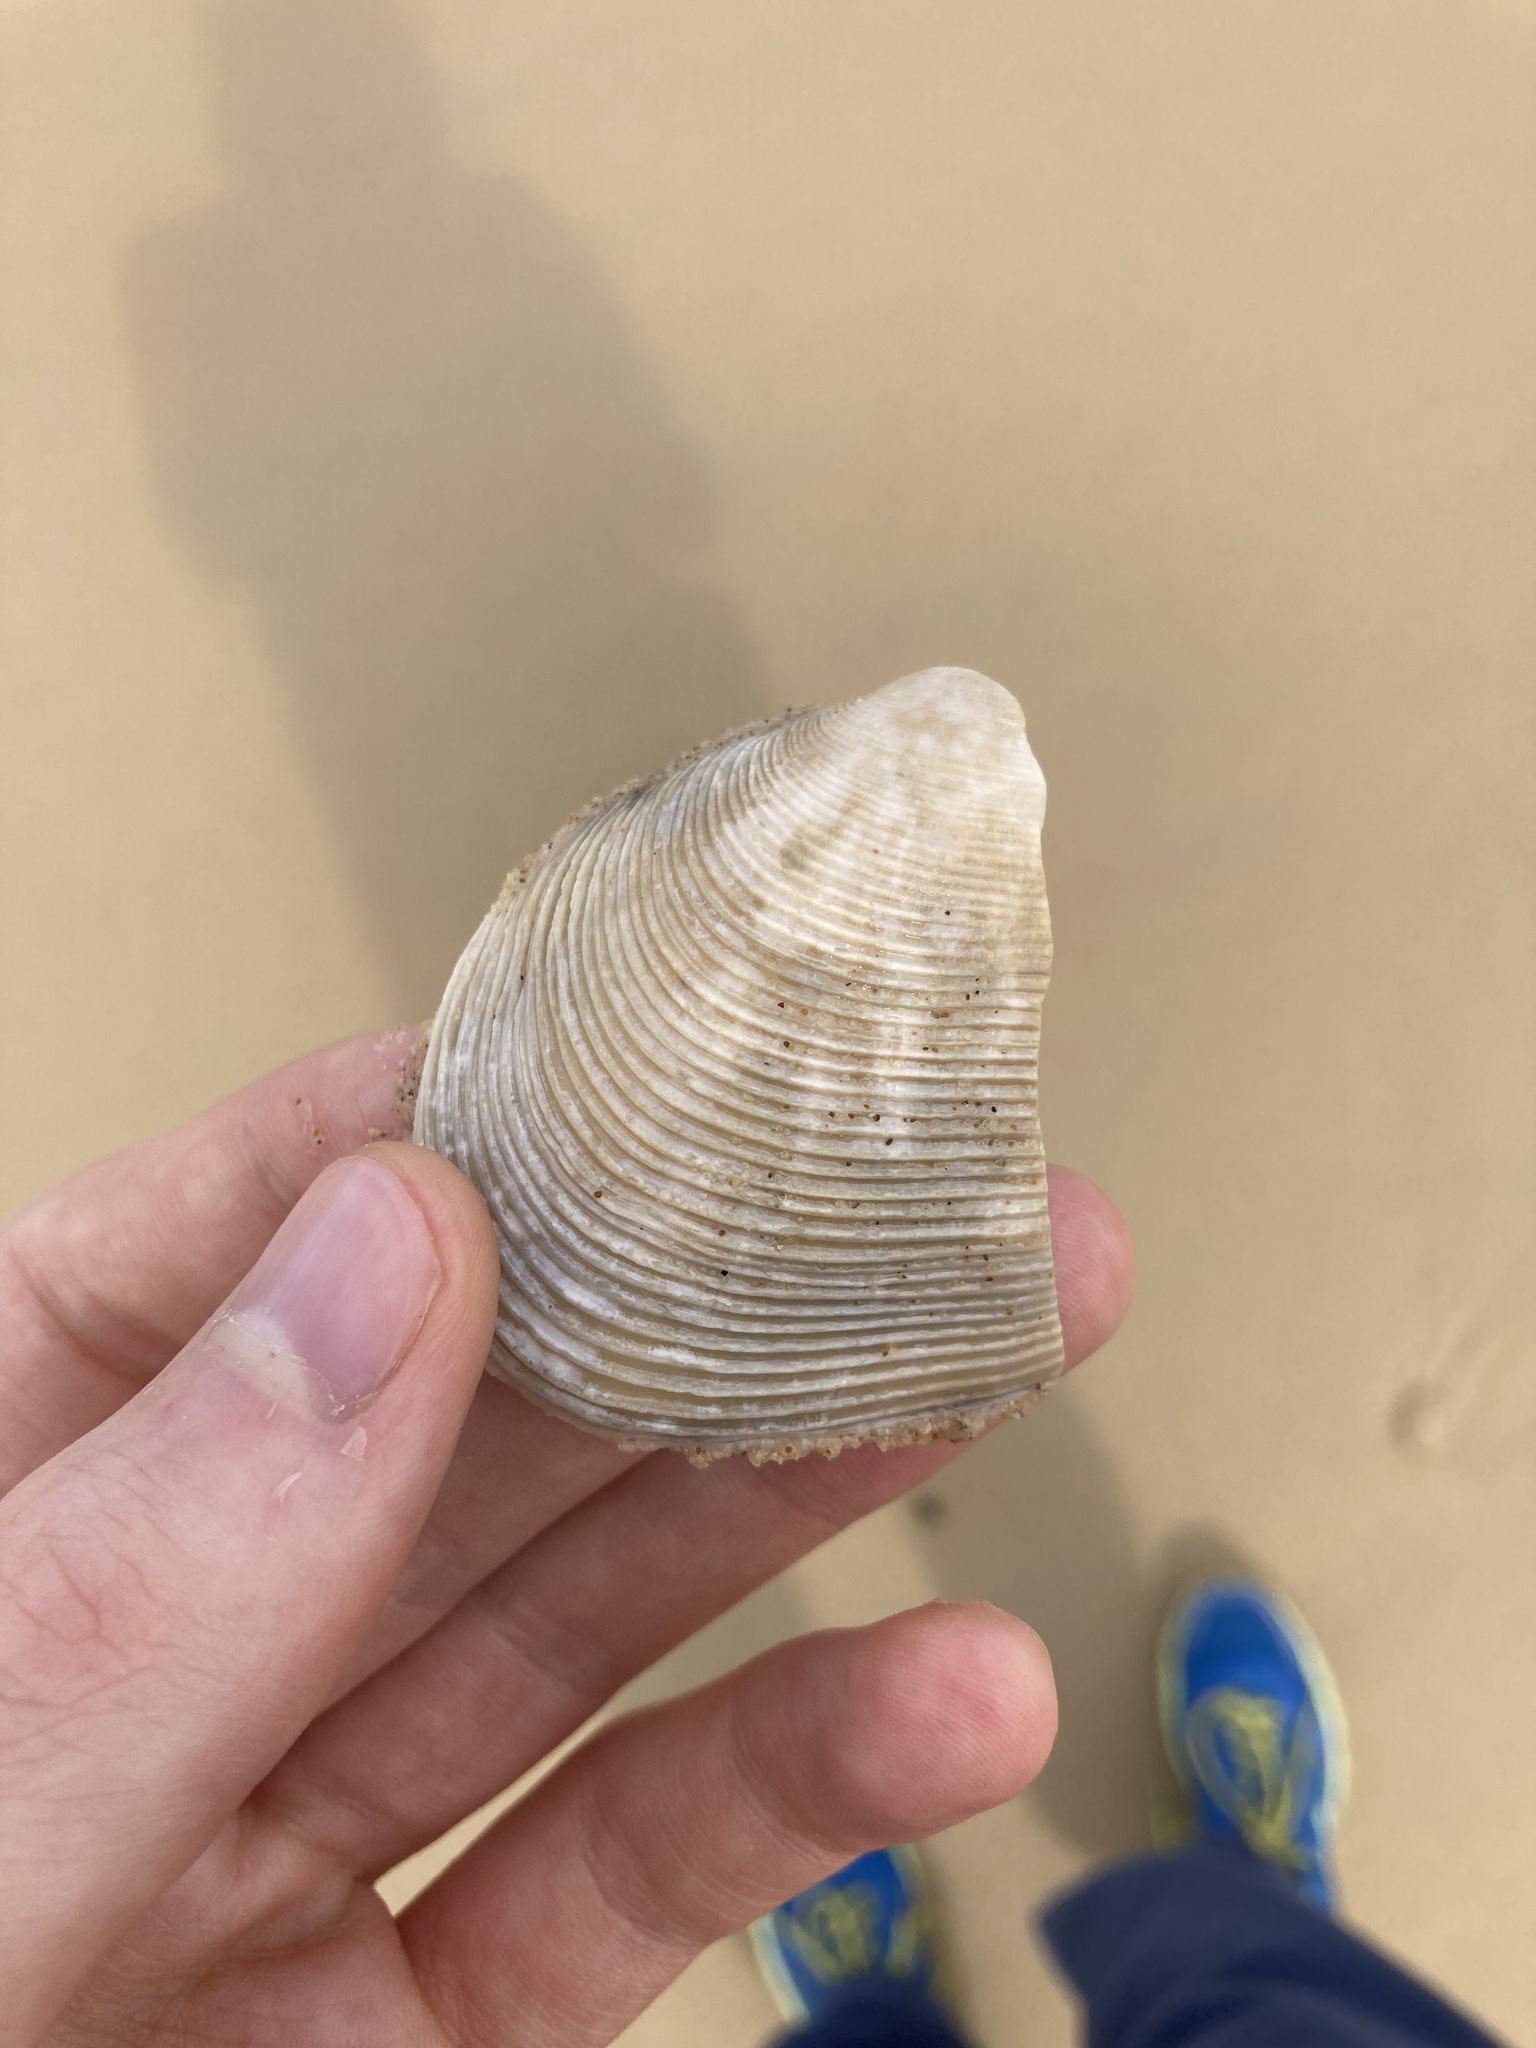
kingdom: Animalia
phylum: Mollusca
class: Bivalvia
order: Venerida
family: Veneridae
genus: Tapes
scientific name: Tapes conspersus
